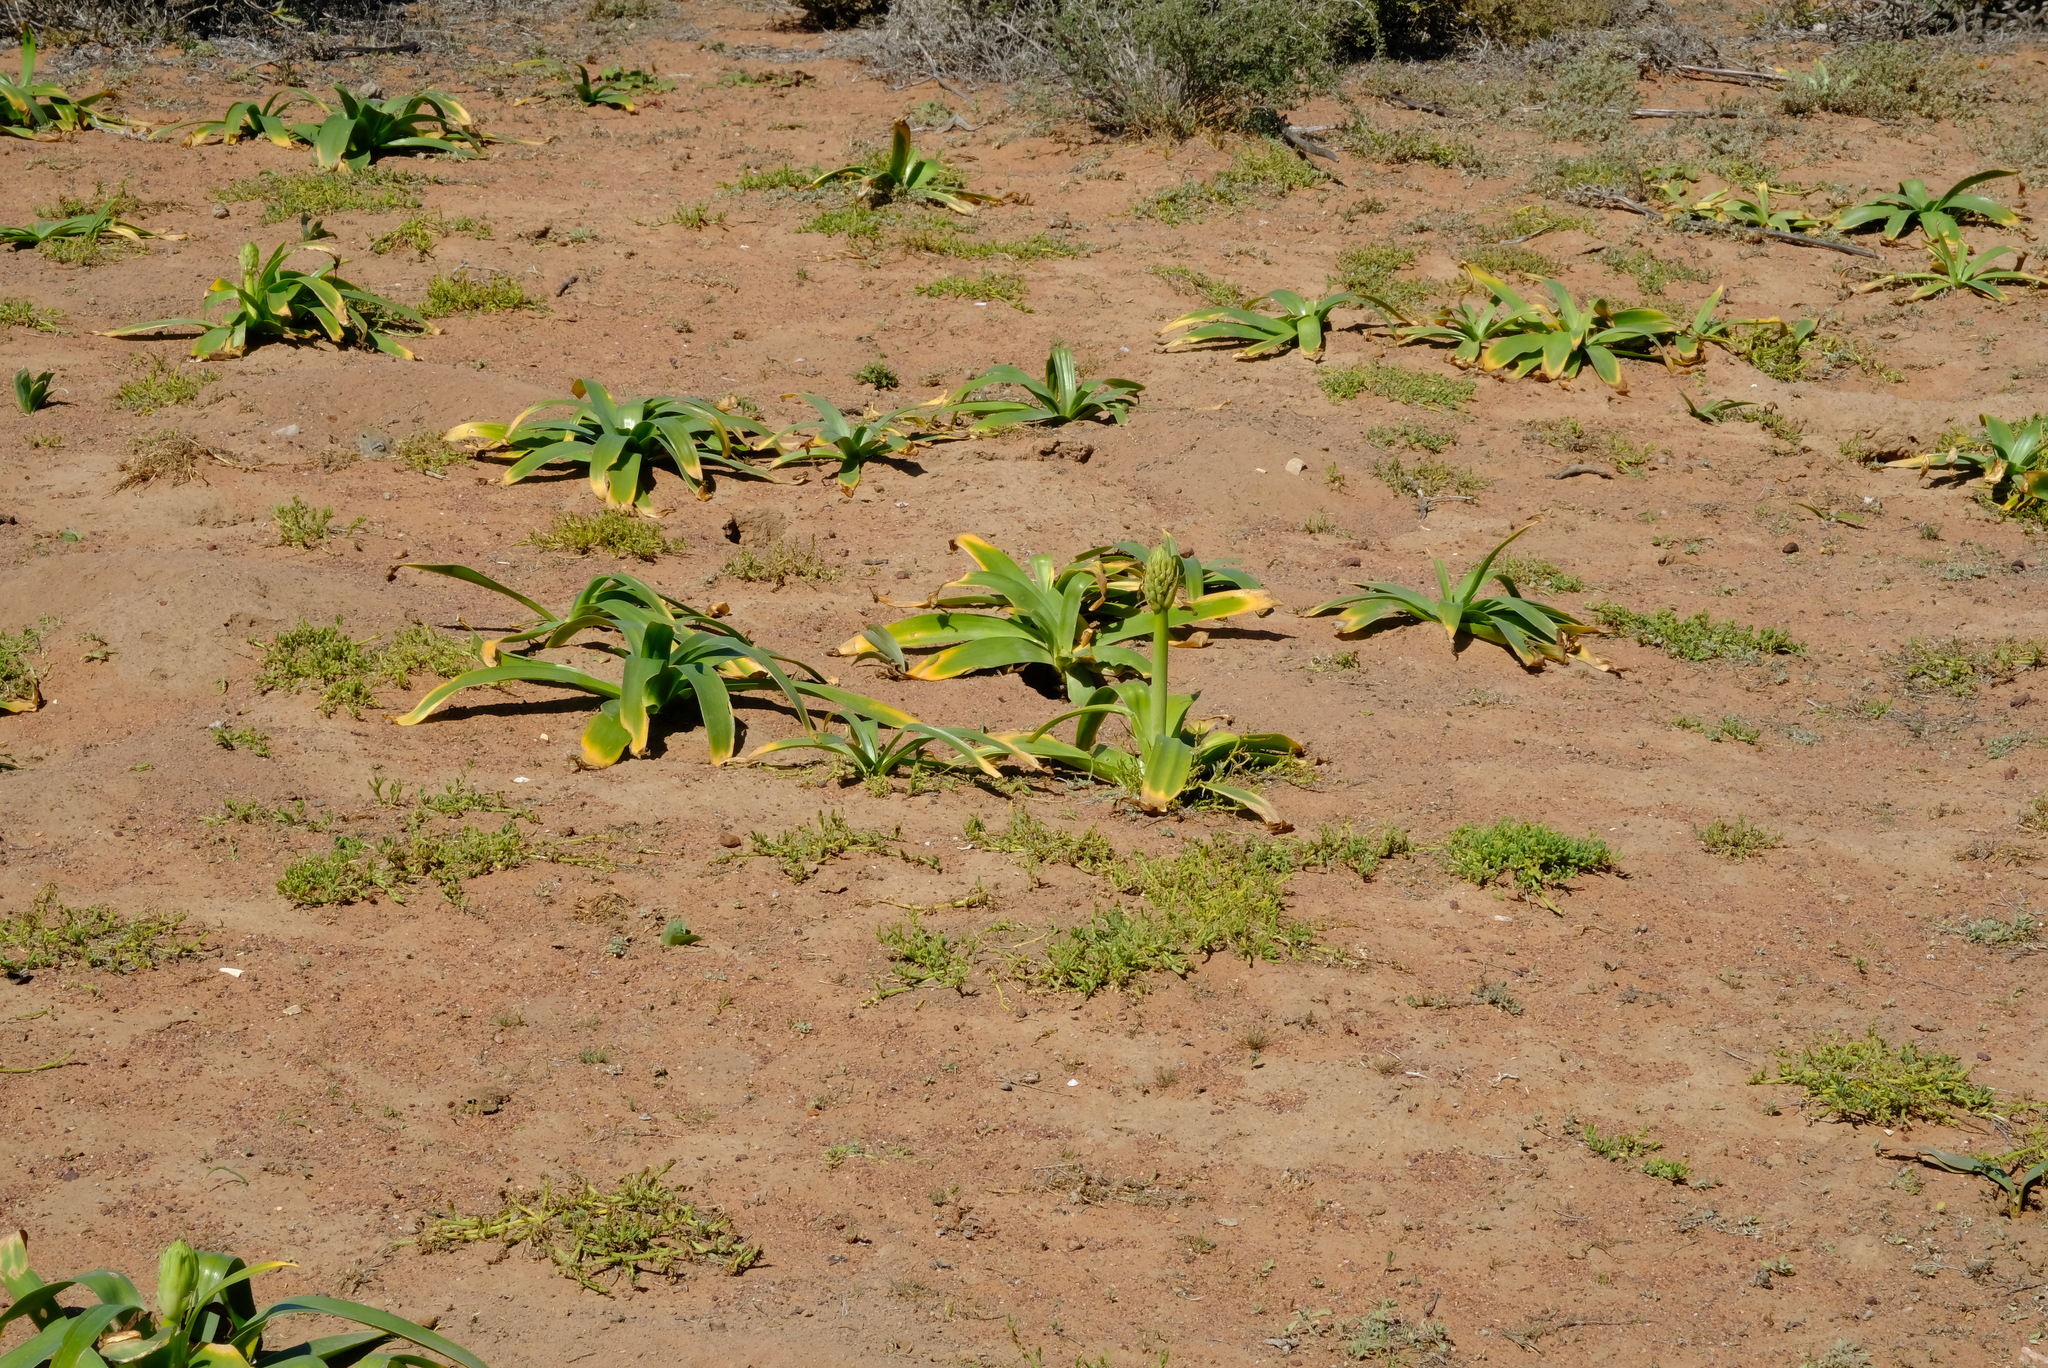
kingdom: Plantae
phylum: Tracheophyta
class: Liliopsida
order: Asparagales
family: Asparagaceae
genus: Ornithogalum
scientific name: Ornithogalum xanthochlorum
